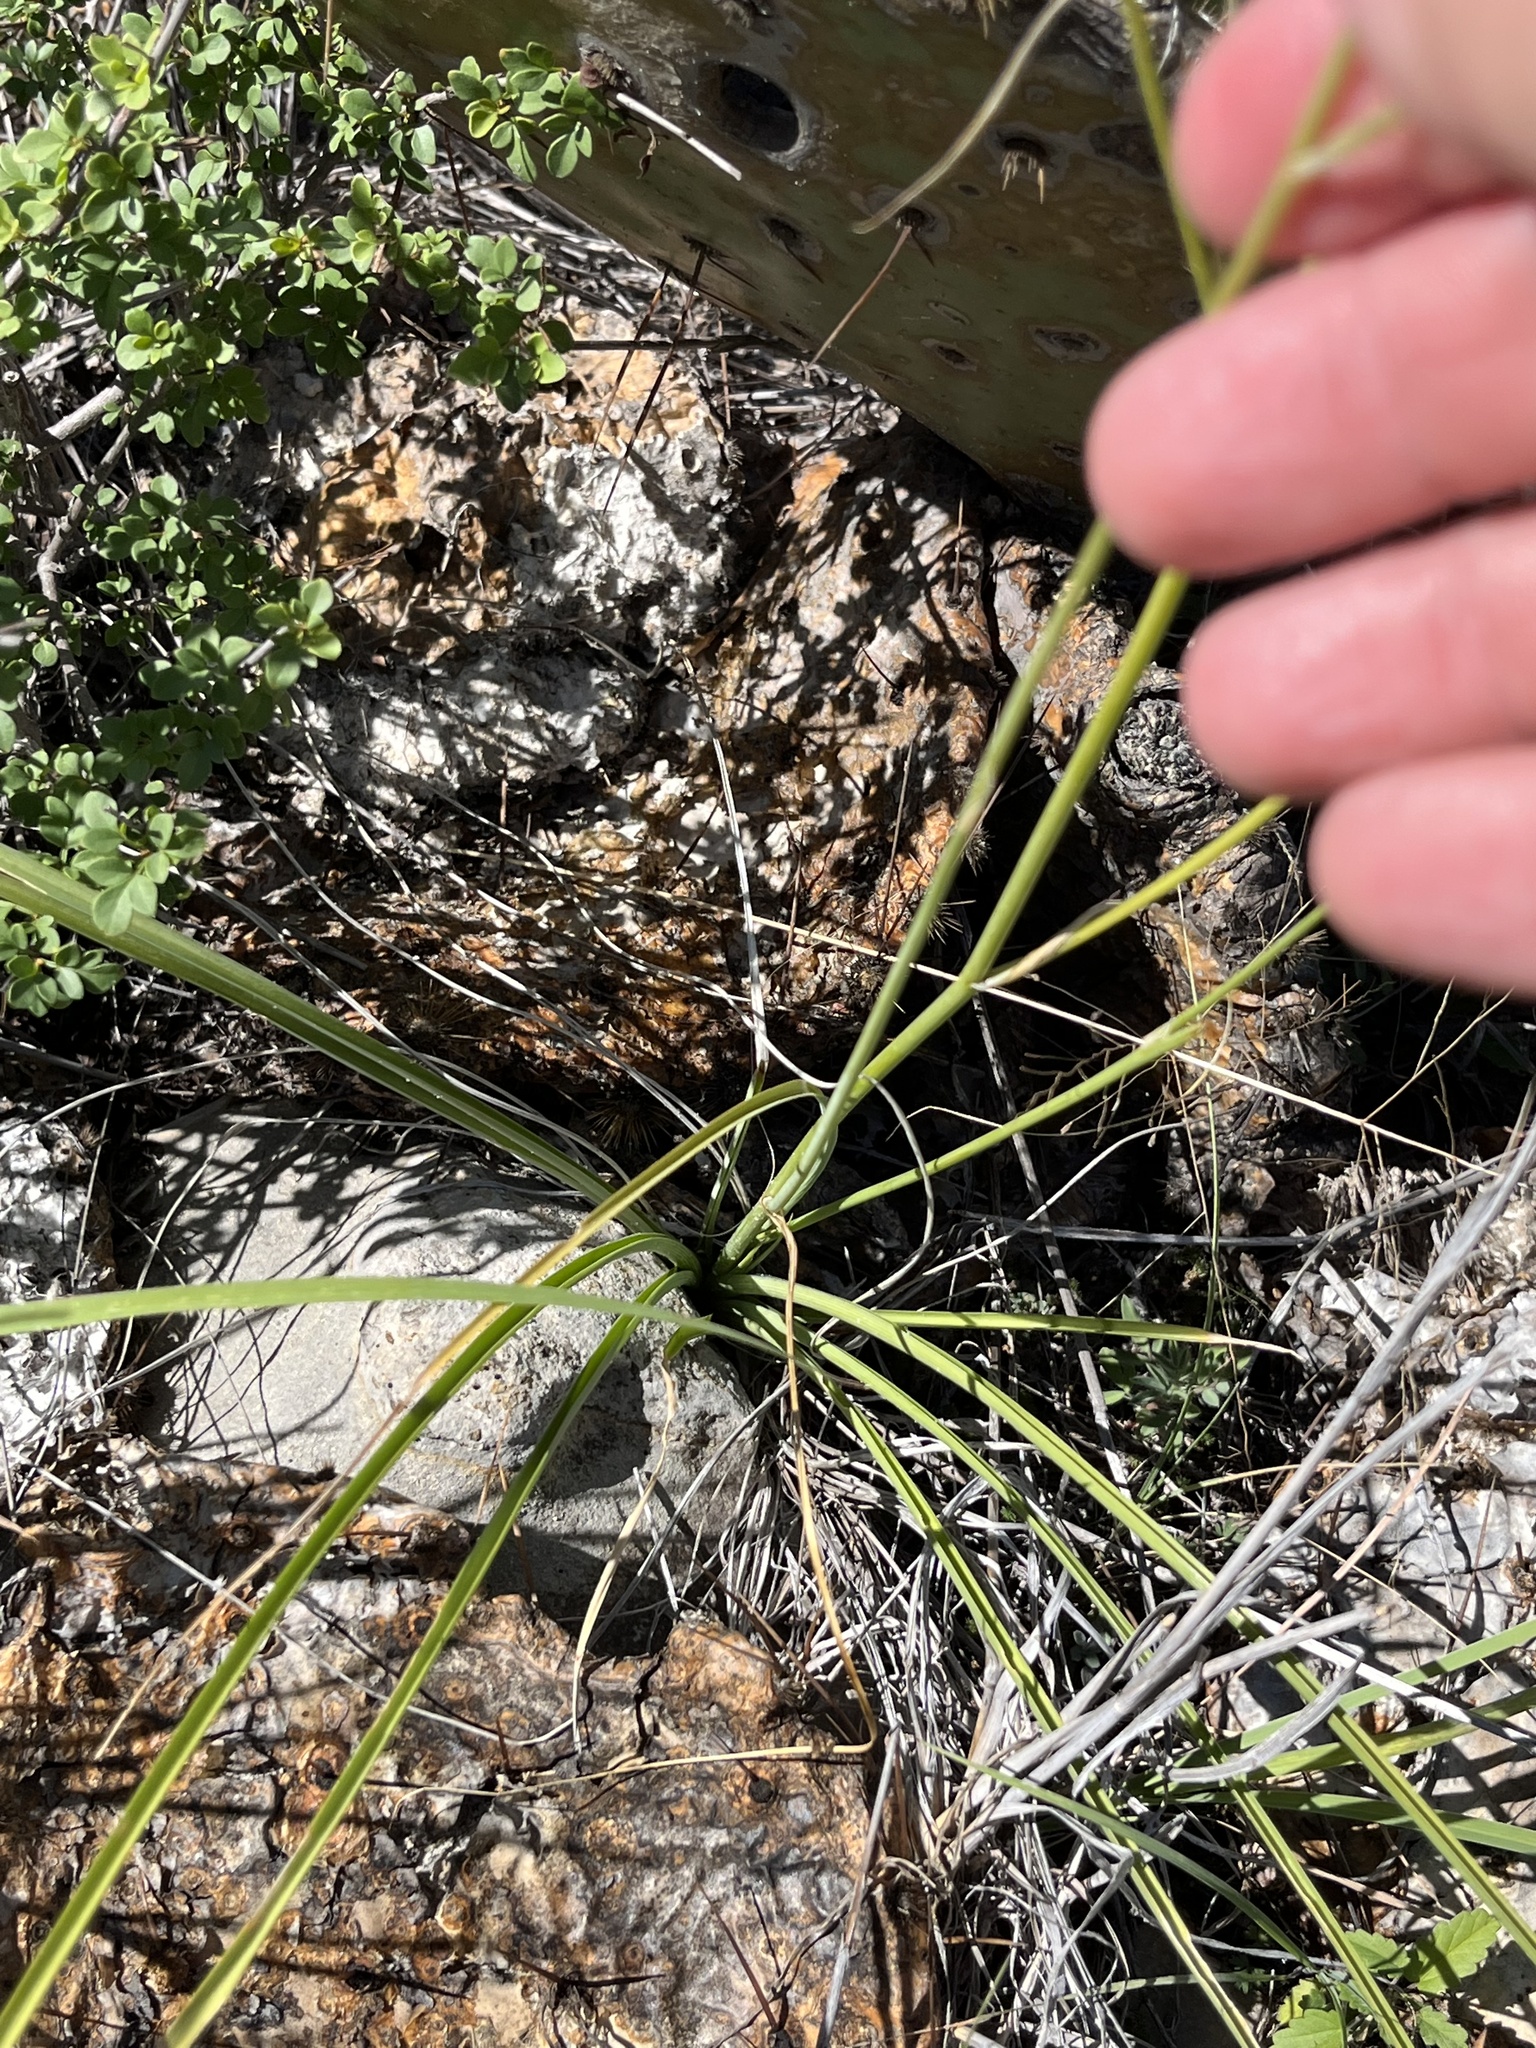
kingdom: Plantae
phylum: Tracheophyta
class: Liliopsida
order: Asparagales
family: Asparagaceae
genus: Echeandia
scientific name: Echeandia flavescens
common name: Amberlily
